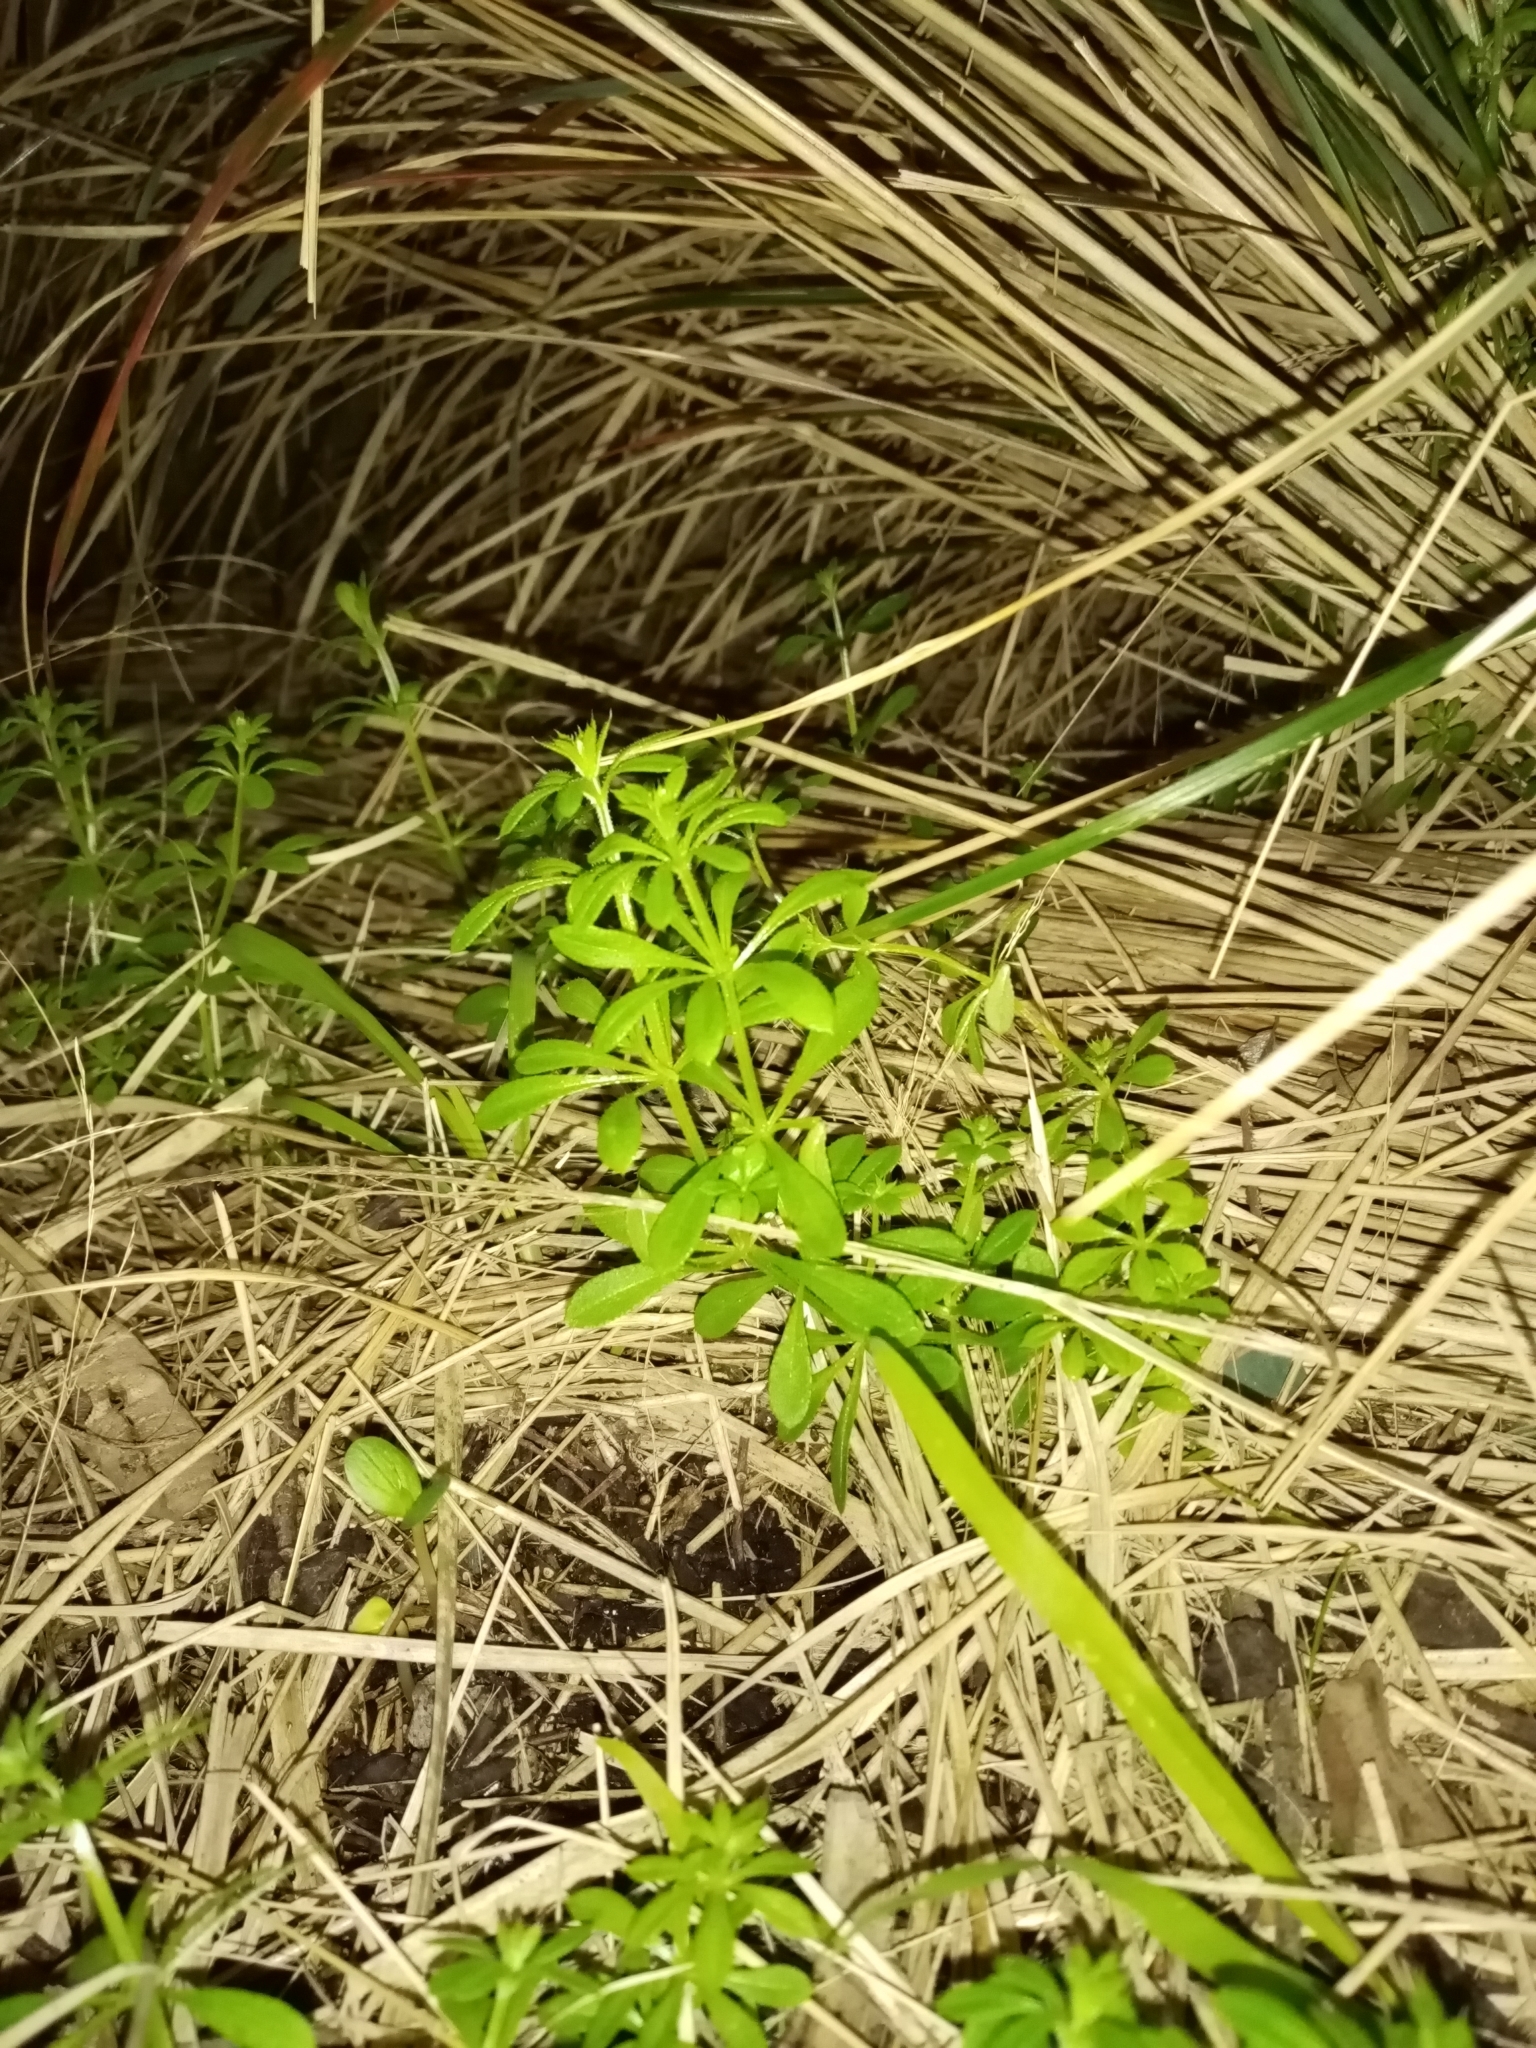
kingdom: Plantae
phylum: Tracheophyta
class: Magnoliopsida
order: Gentianales
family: Rubiaceae
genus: Galium
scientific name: Galium aparine
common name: Cleavers
